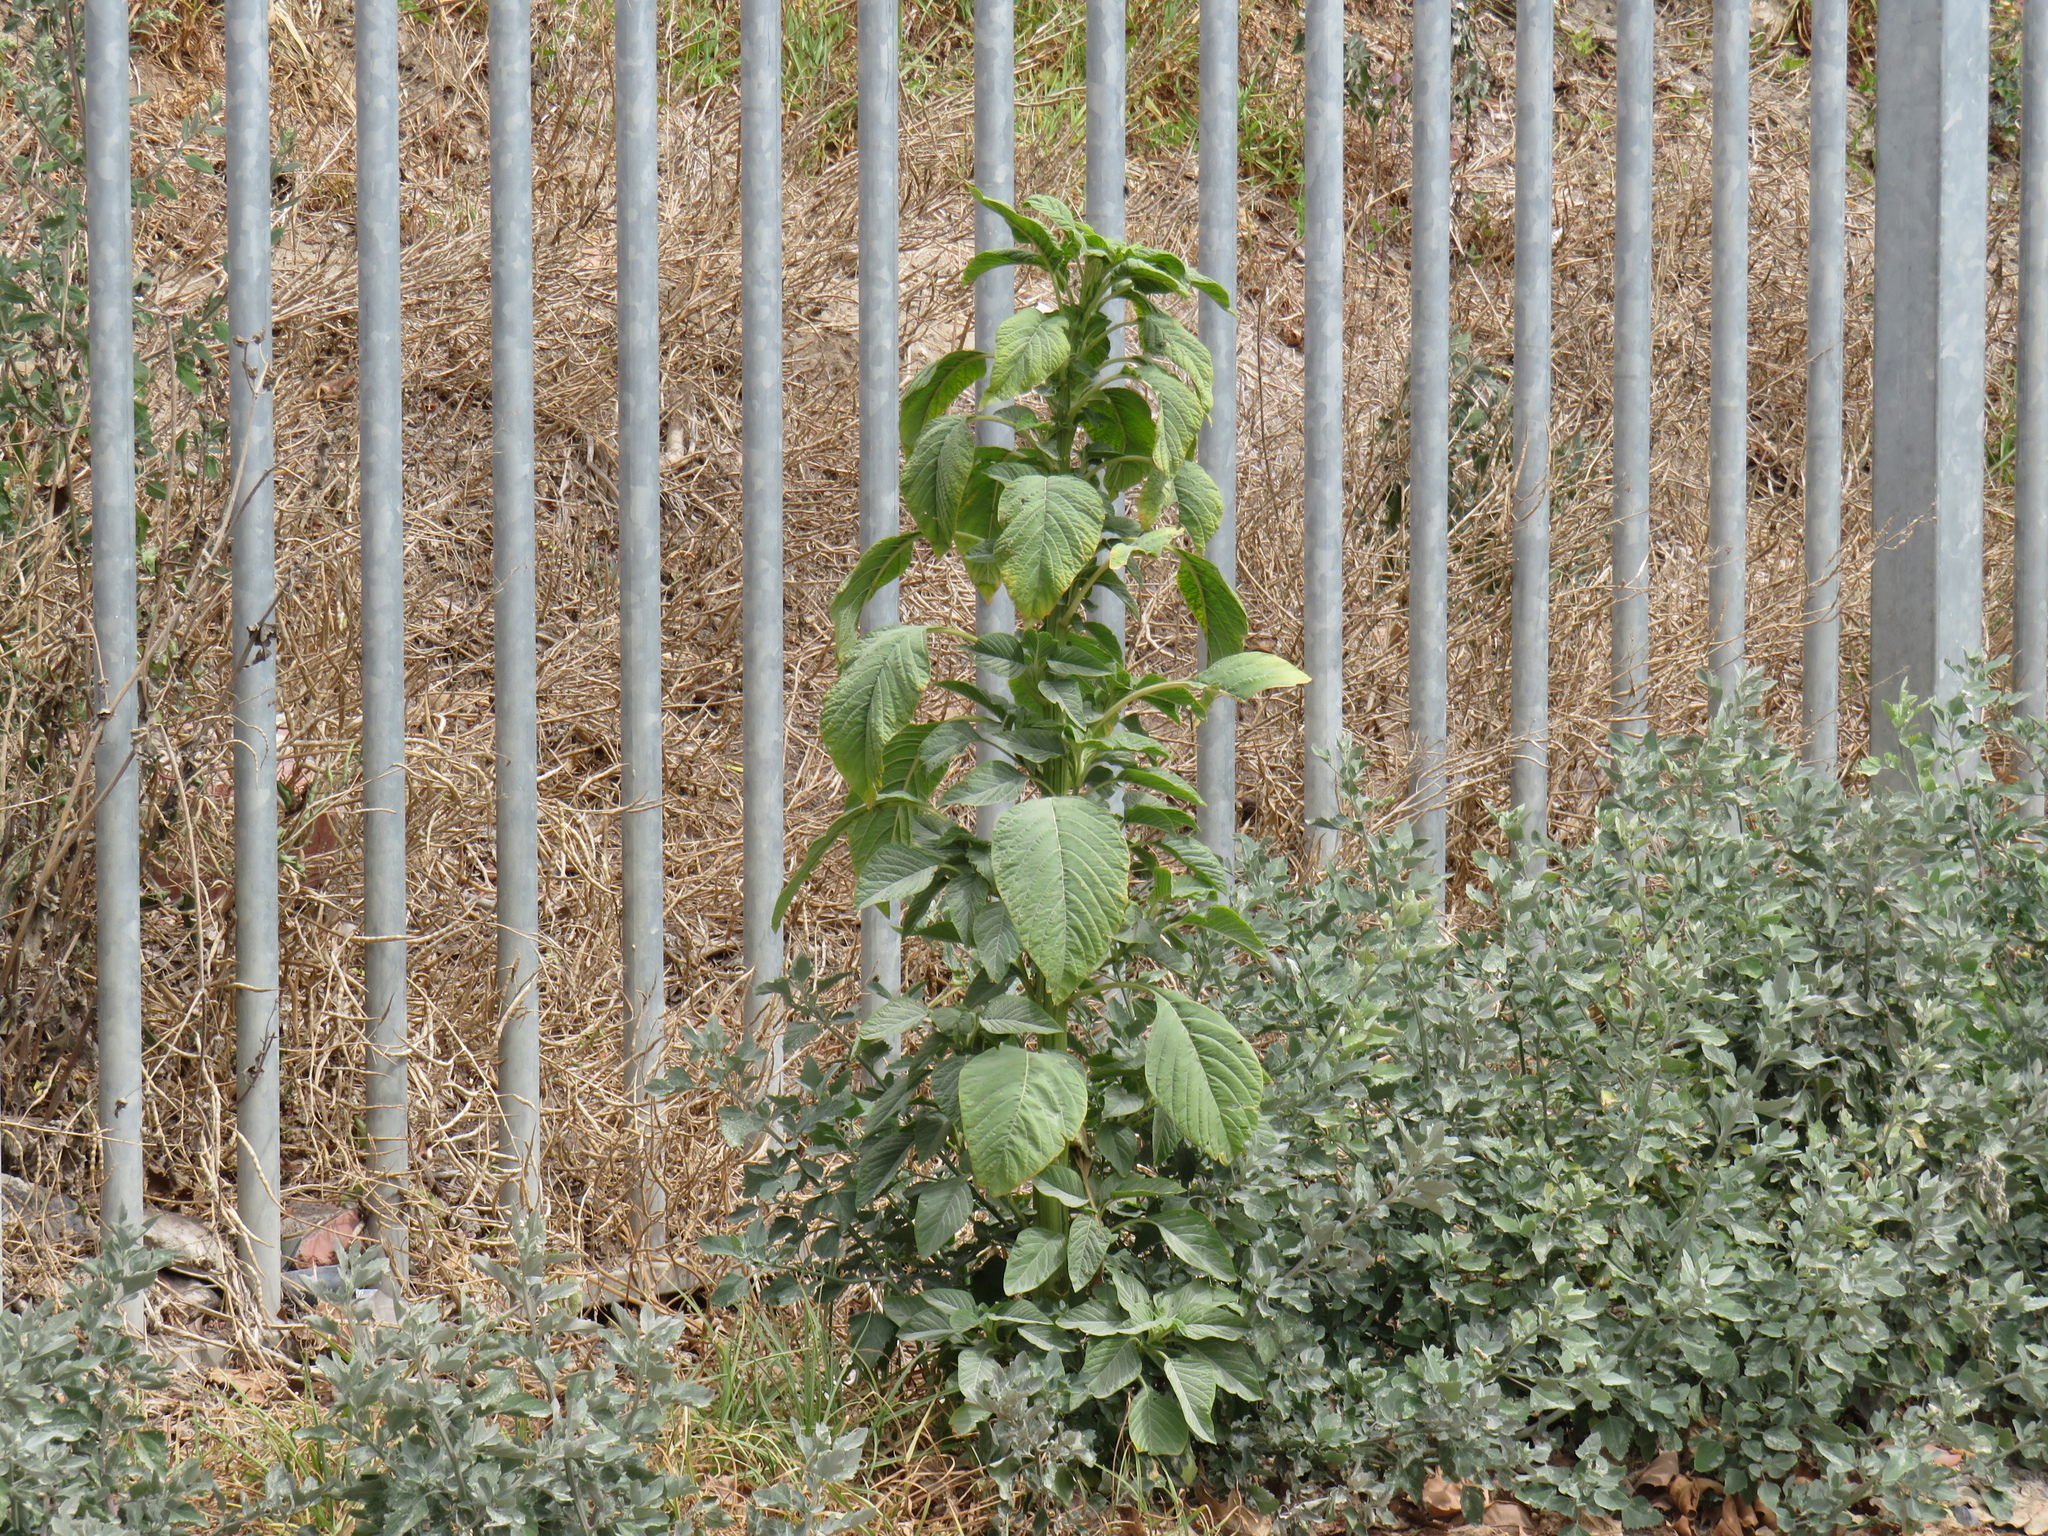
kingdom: Plantae
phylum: Tracheophyta
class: Magnoliopsida
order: Caryophyllales
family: Amaranthaceae
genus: Amaranthus
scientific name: Amaranthus hybridus
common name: Green amaranth
